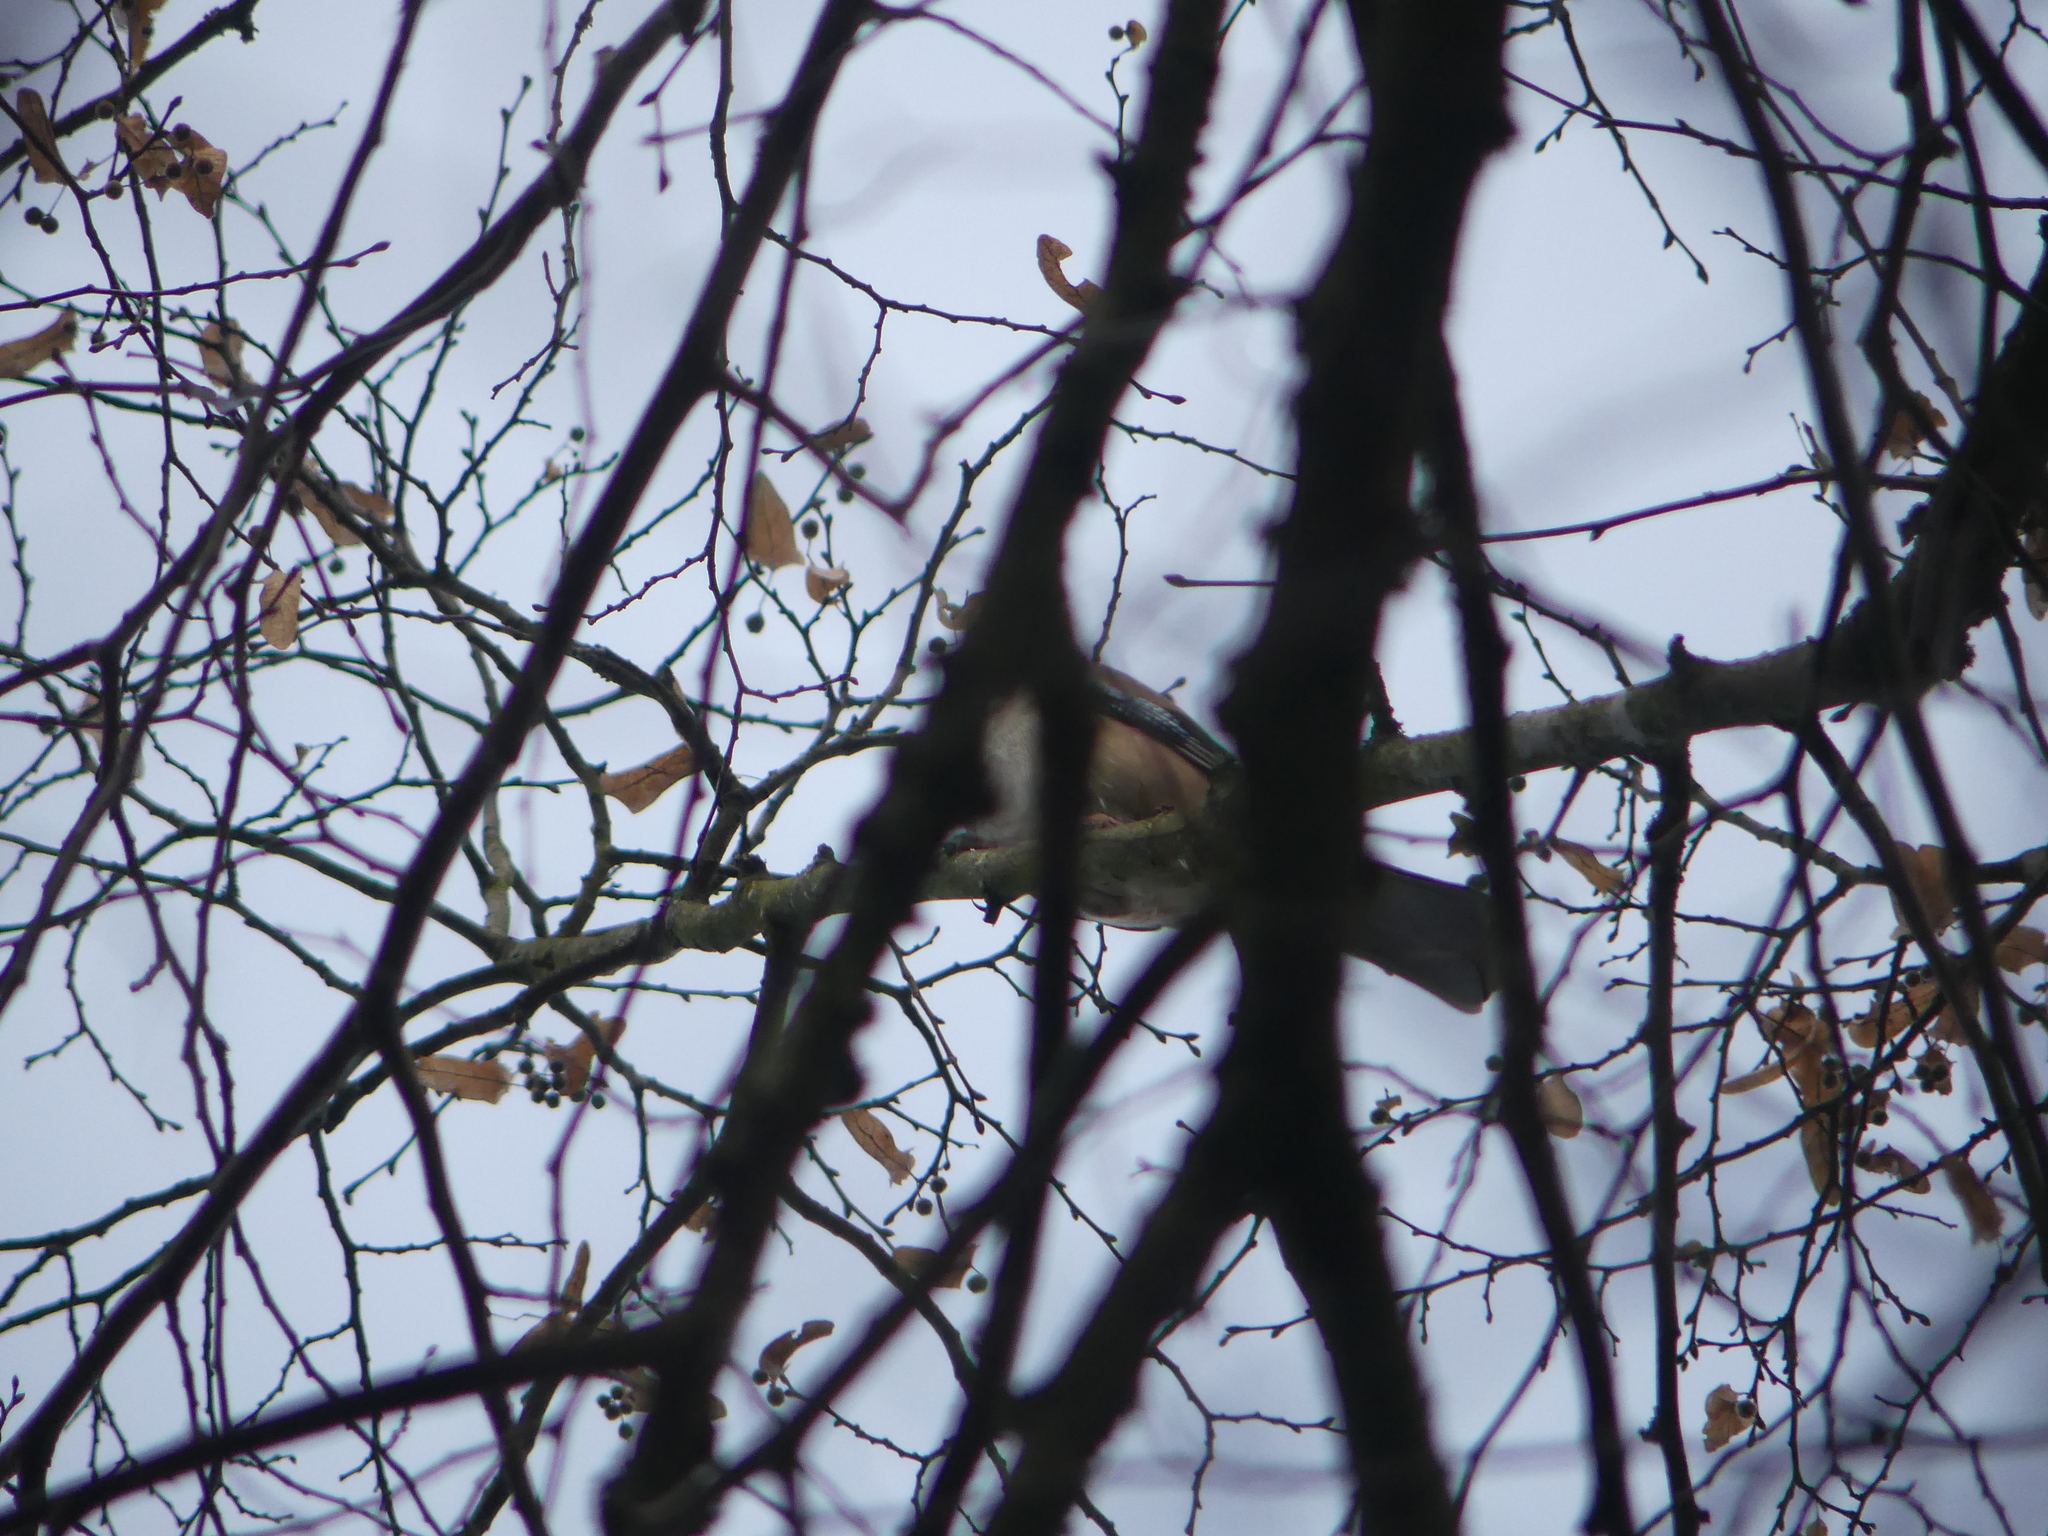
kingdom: Animalia
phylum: Chordata
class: Aves
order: Passeriformes
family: Corvidae
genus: Garrulus
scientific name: Garrulus glandarius
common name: Eurasian jay
